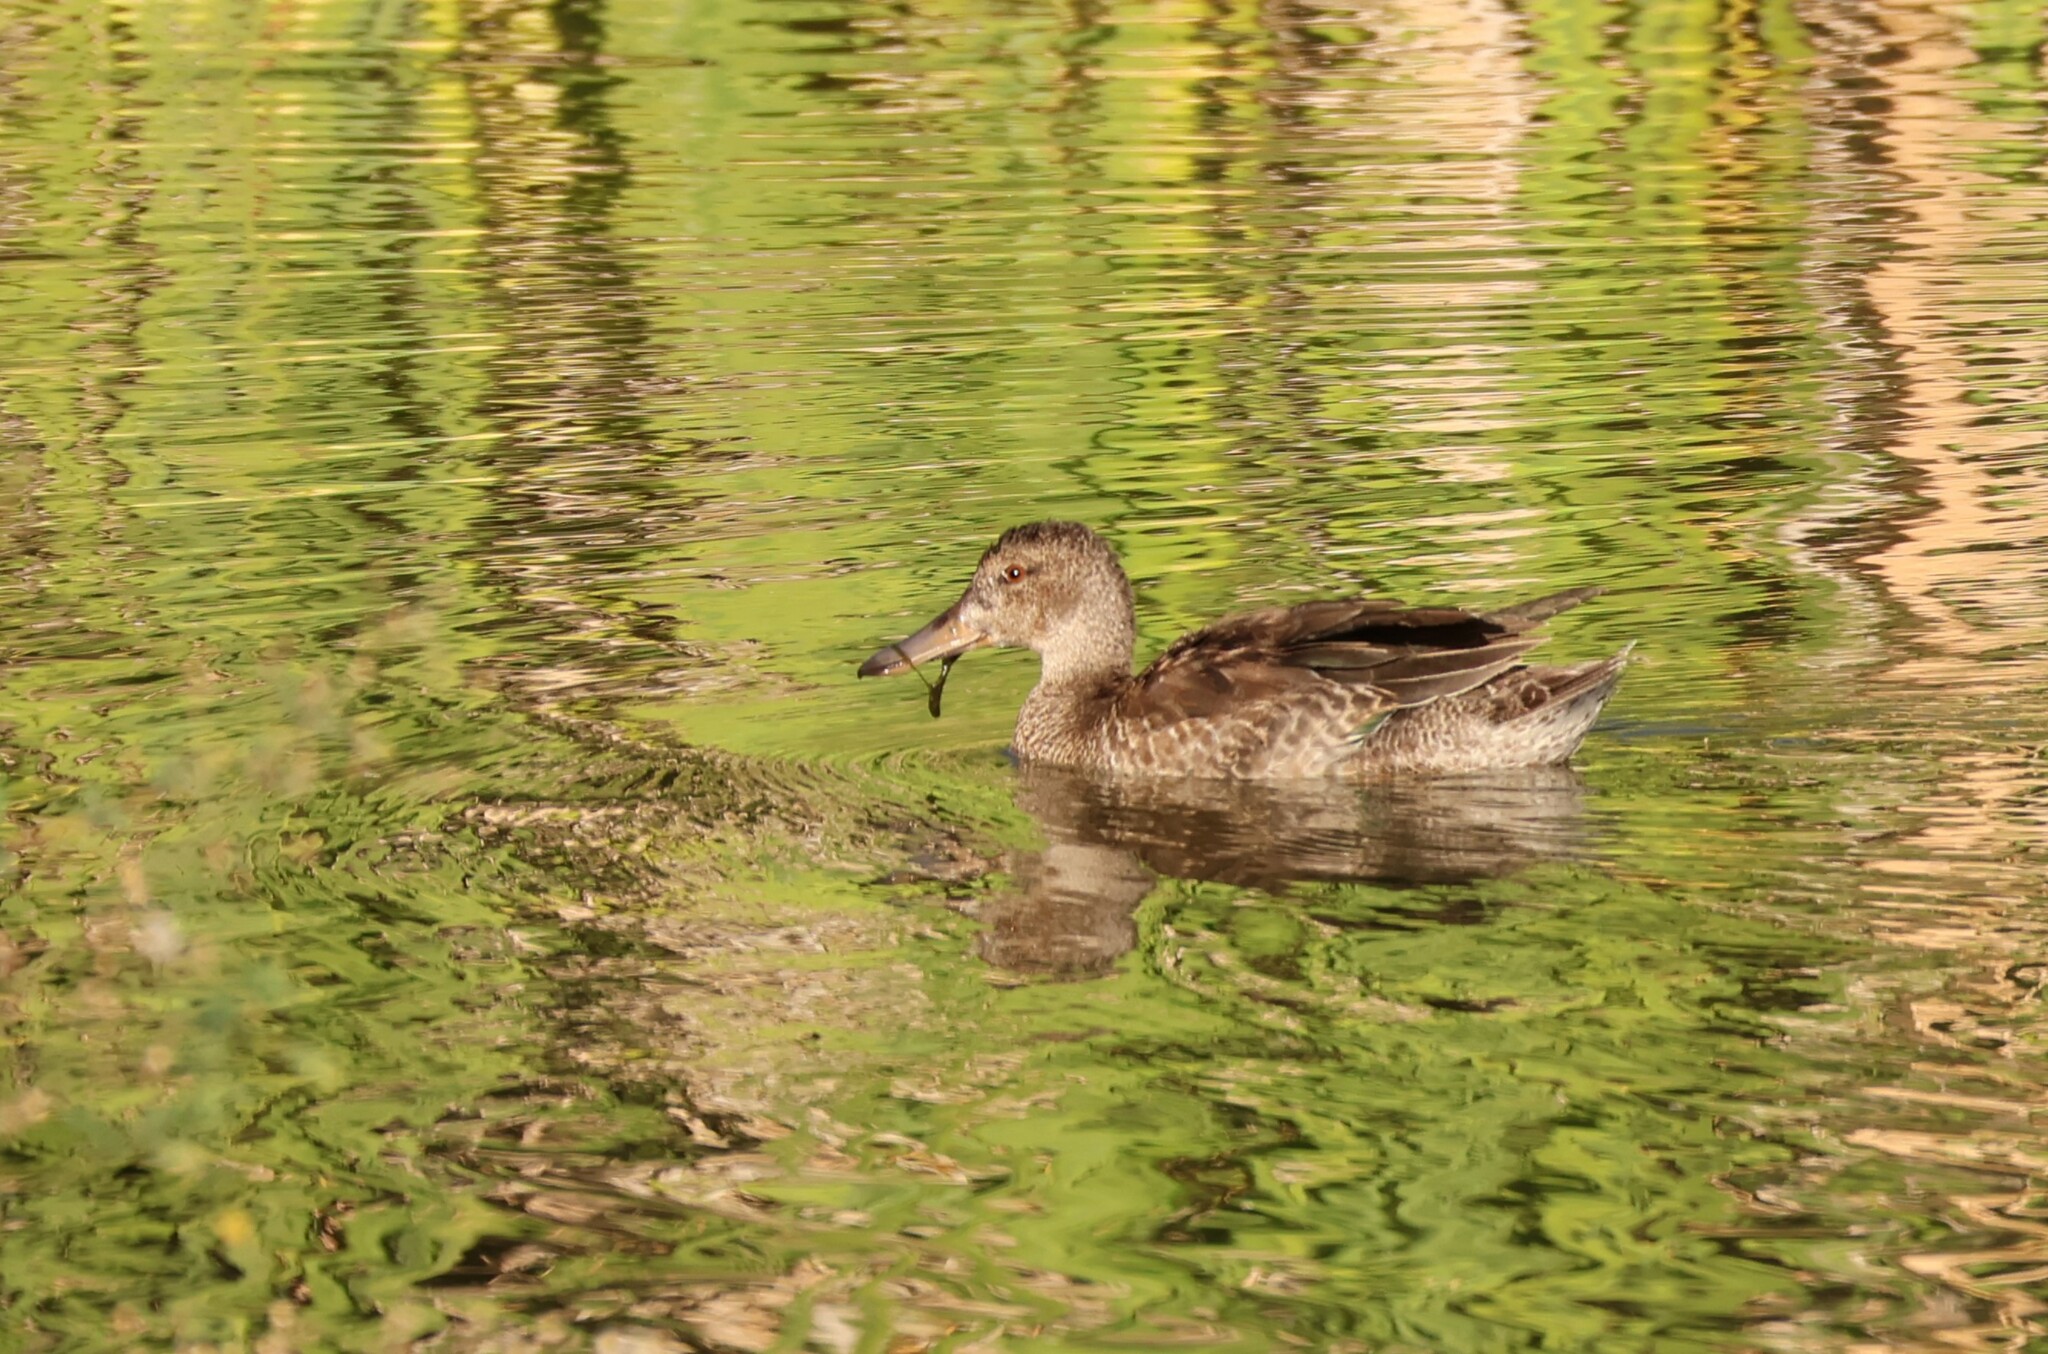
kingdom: Animalia
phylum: Chordata
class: Aves
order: Anseriformes
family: Anatidae
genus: Spatula
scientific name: Spatula cyanoptera
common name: Cinnamon teal
